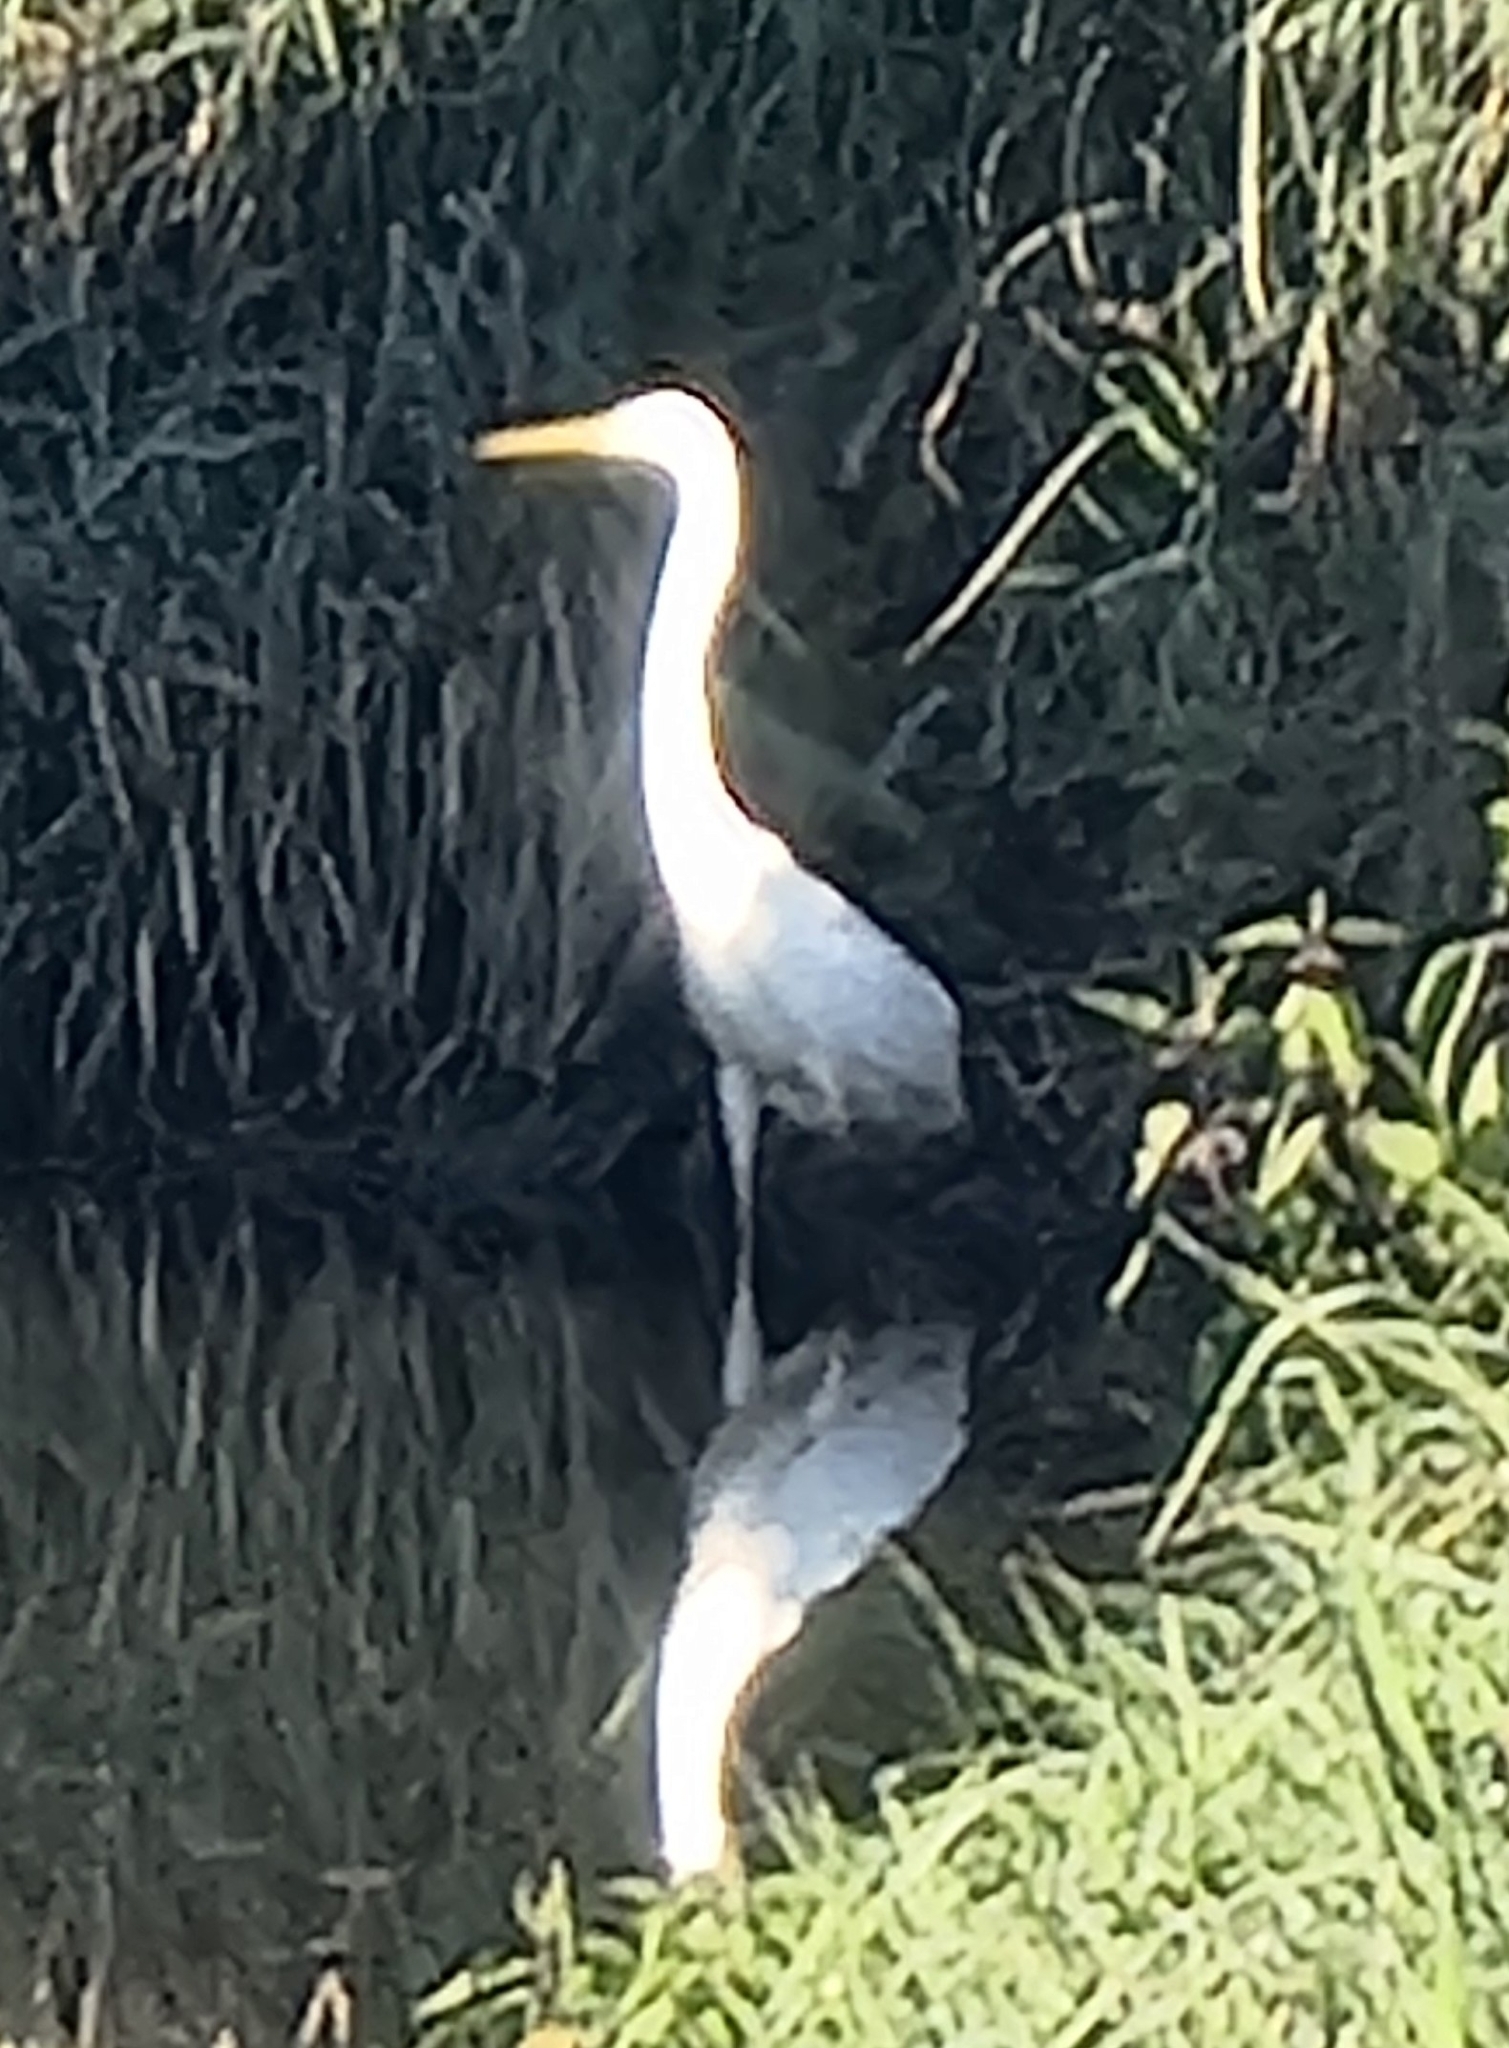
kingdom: Animalia
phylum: Chordata
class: Aves
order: Pelecaniformes
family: Ardeidae
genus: Ardea
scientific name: Ardea alba
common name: Great egret
